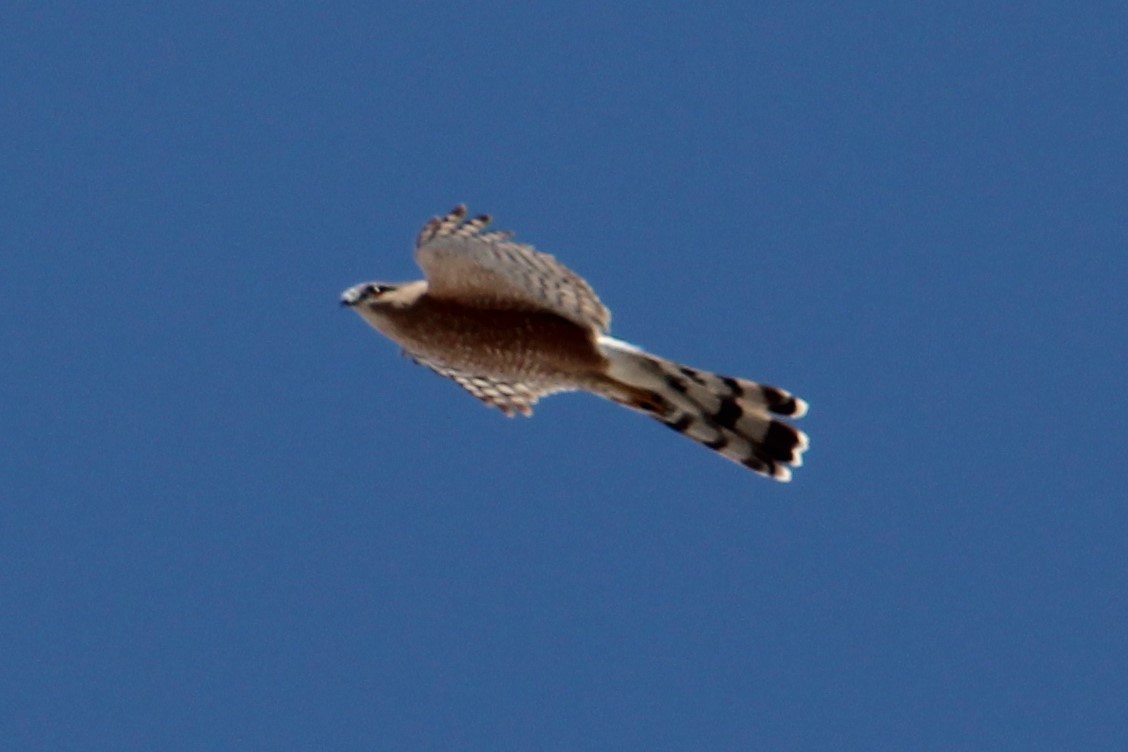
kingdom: Animalia
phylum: Chordata
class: Aves
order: Accipitriformes
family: Accipitridae
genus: Accipiter
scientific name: Accipiter cooperii
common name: Cooper's hawk
